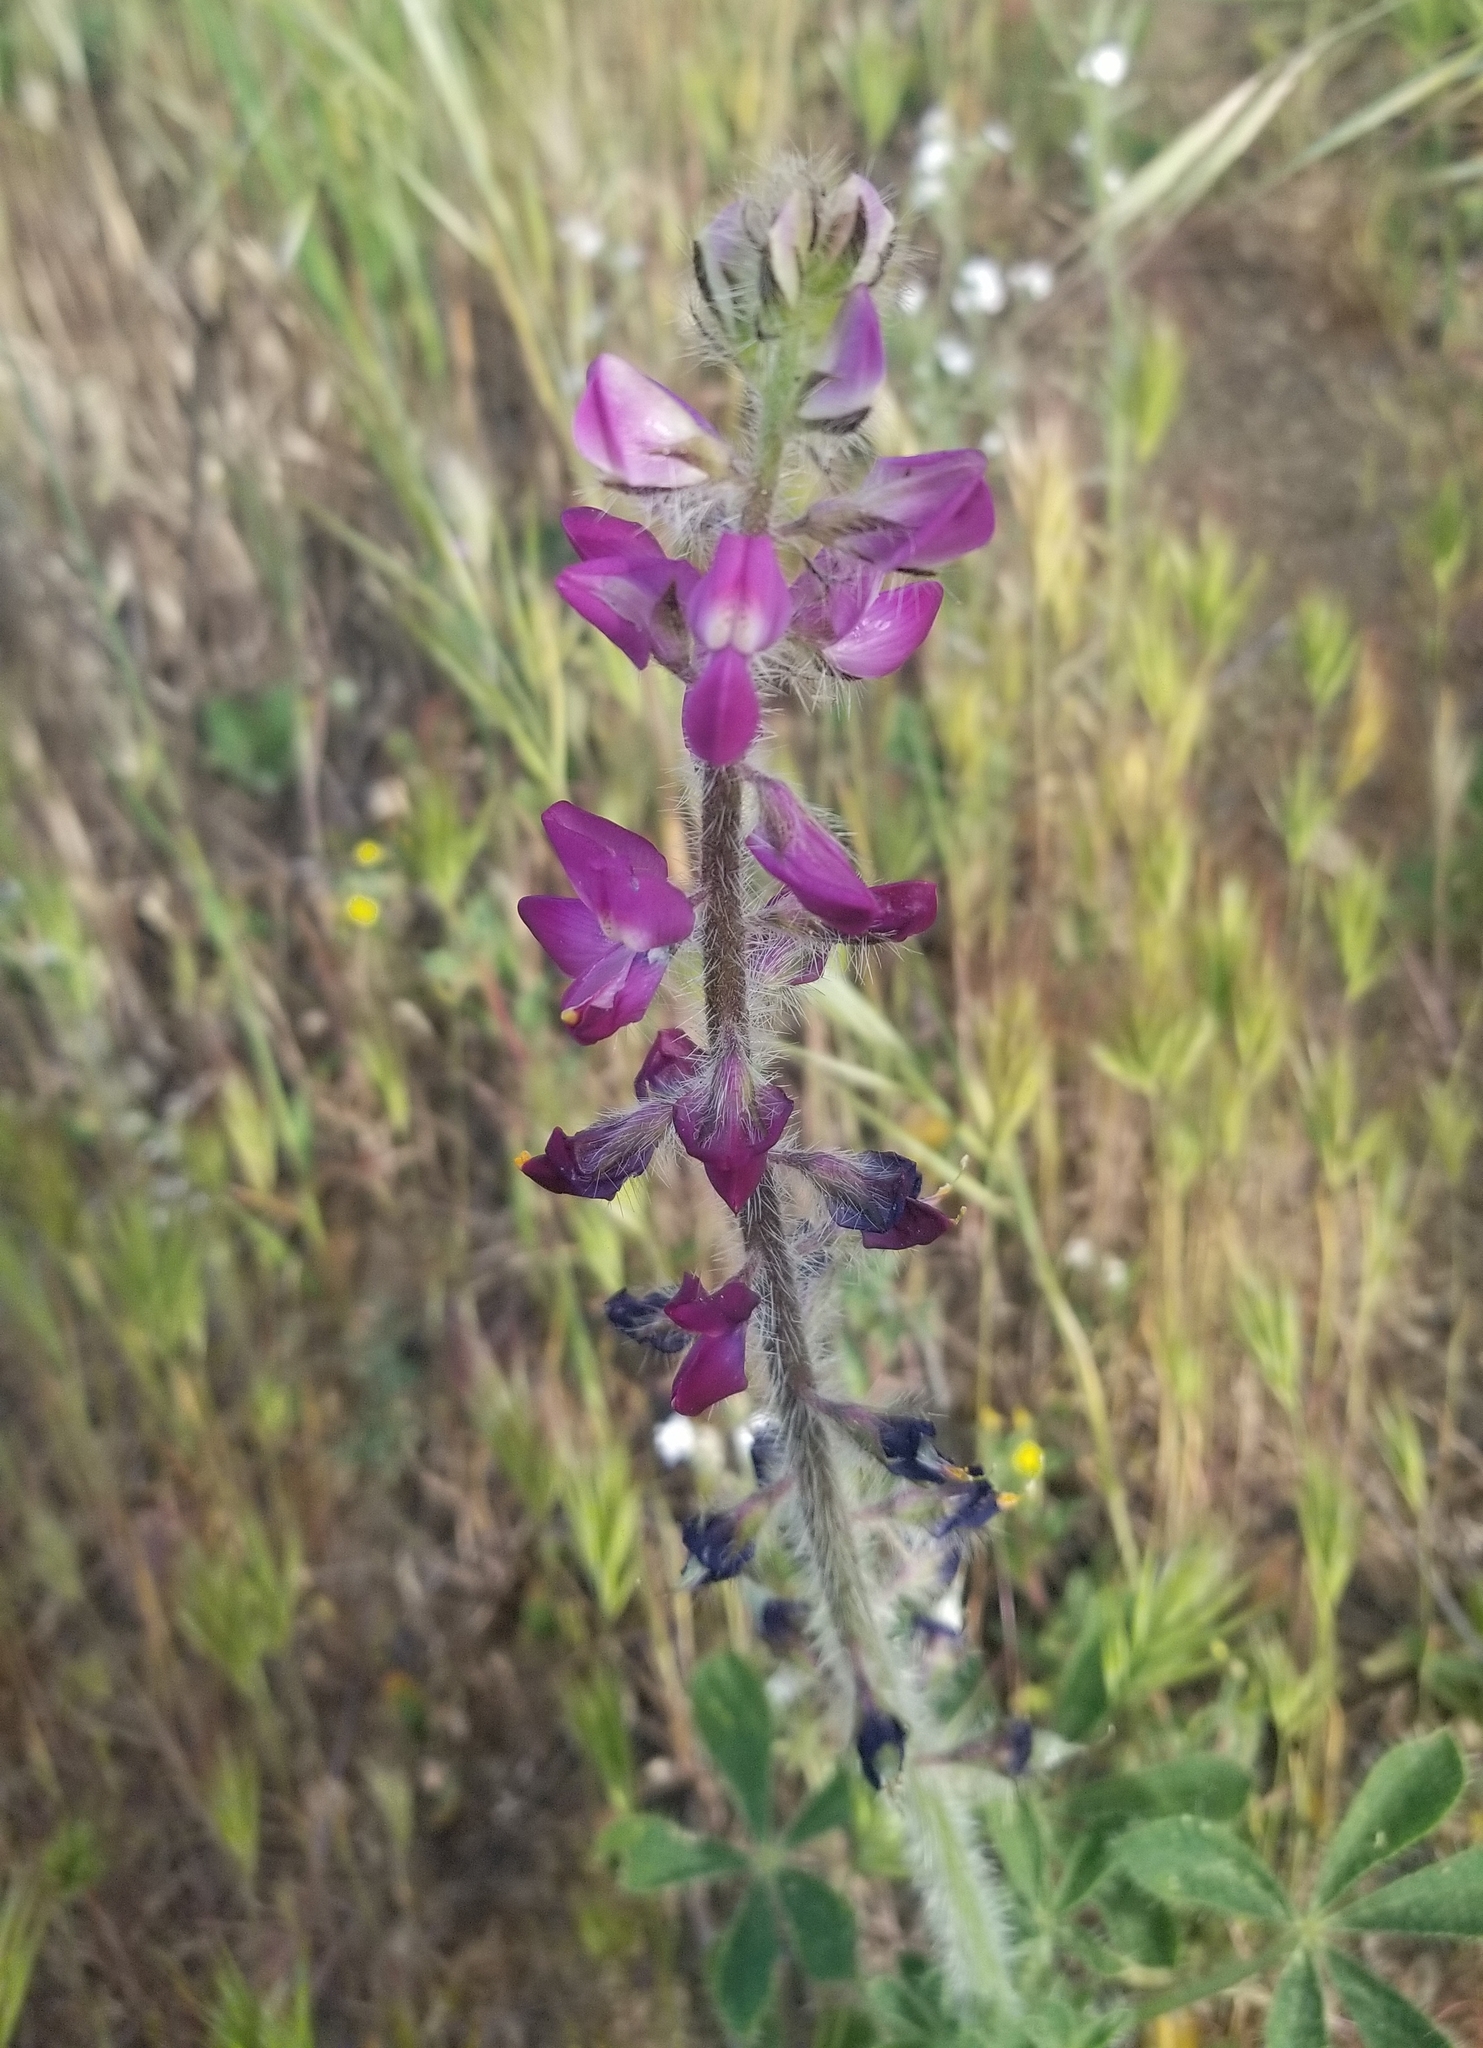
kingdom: Plantae
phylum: Tracheophyta
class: Magnoliopsida
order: Fabales
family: Fabaceae
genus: Lupinus
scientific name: Lupinus hirsutissimus
